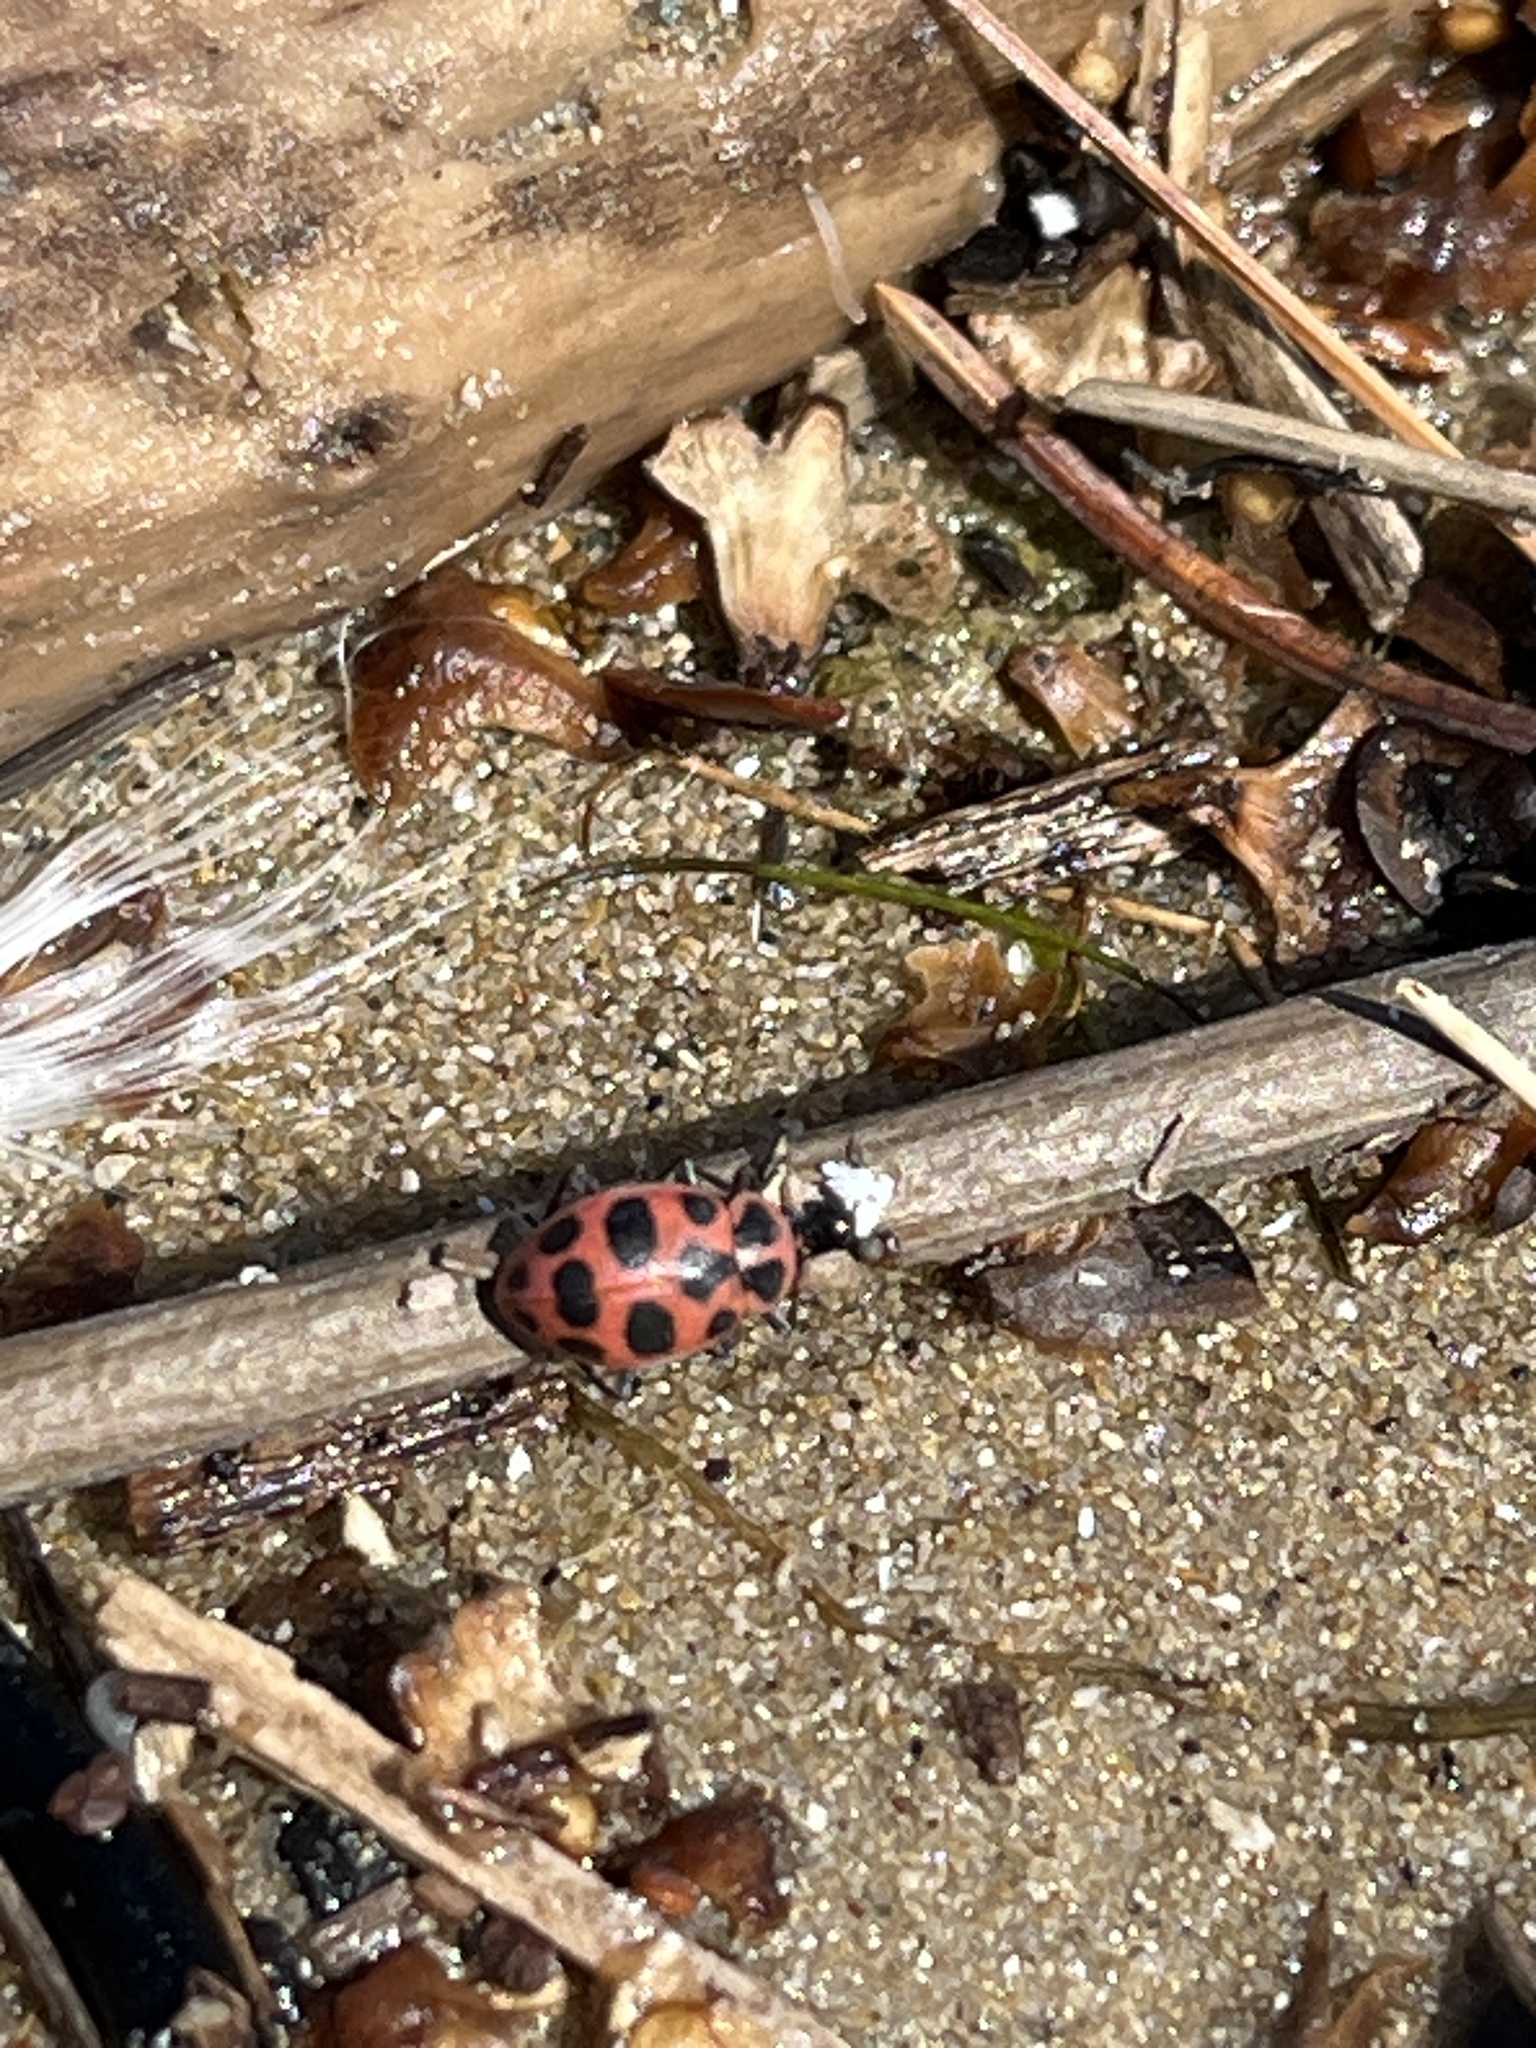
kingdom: Animalia
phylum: Arthropoda
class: Insecta
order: Coleoptera
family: Coccinellidae
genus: Coleomegilla
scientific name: Coleomegilla maculata
